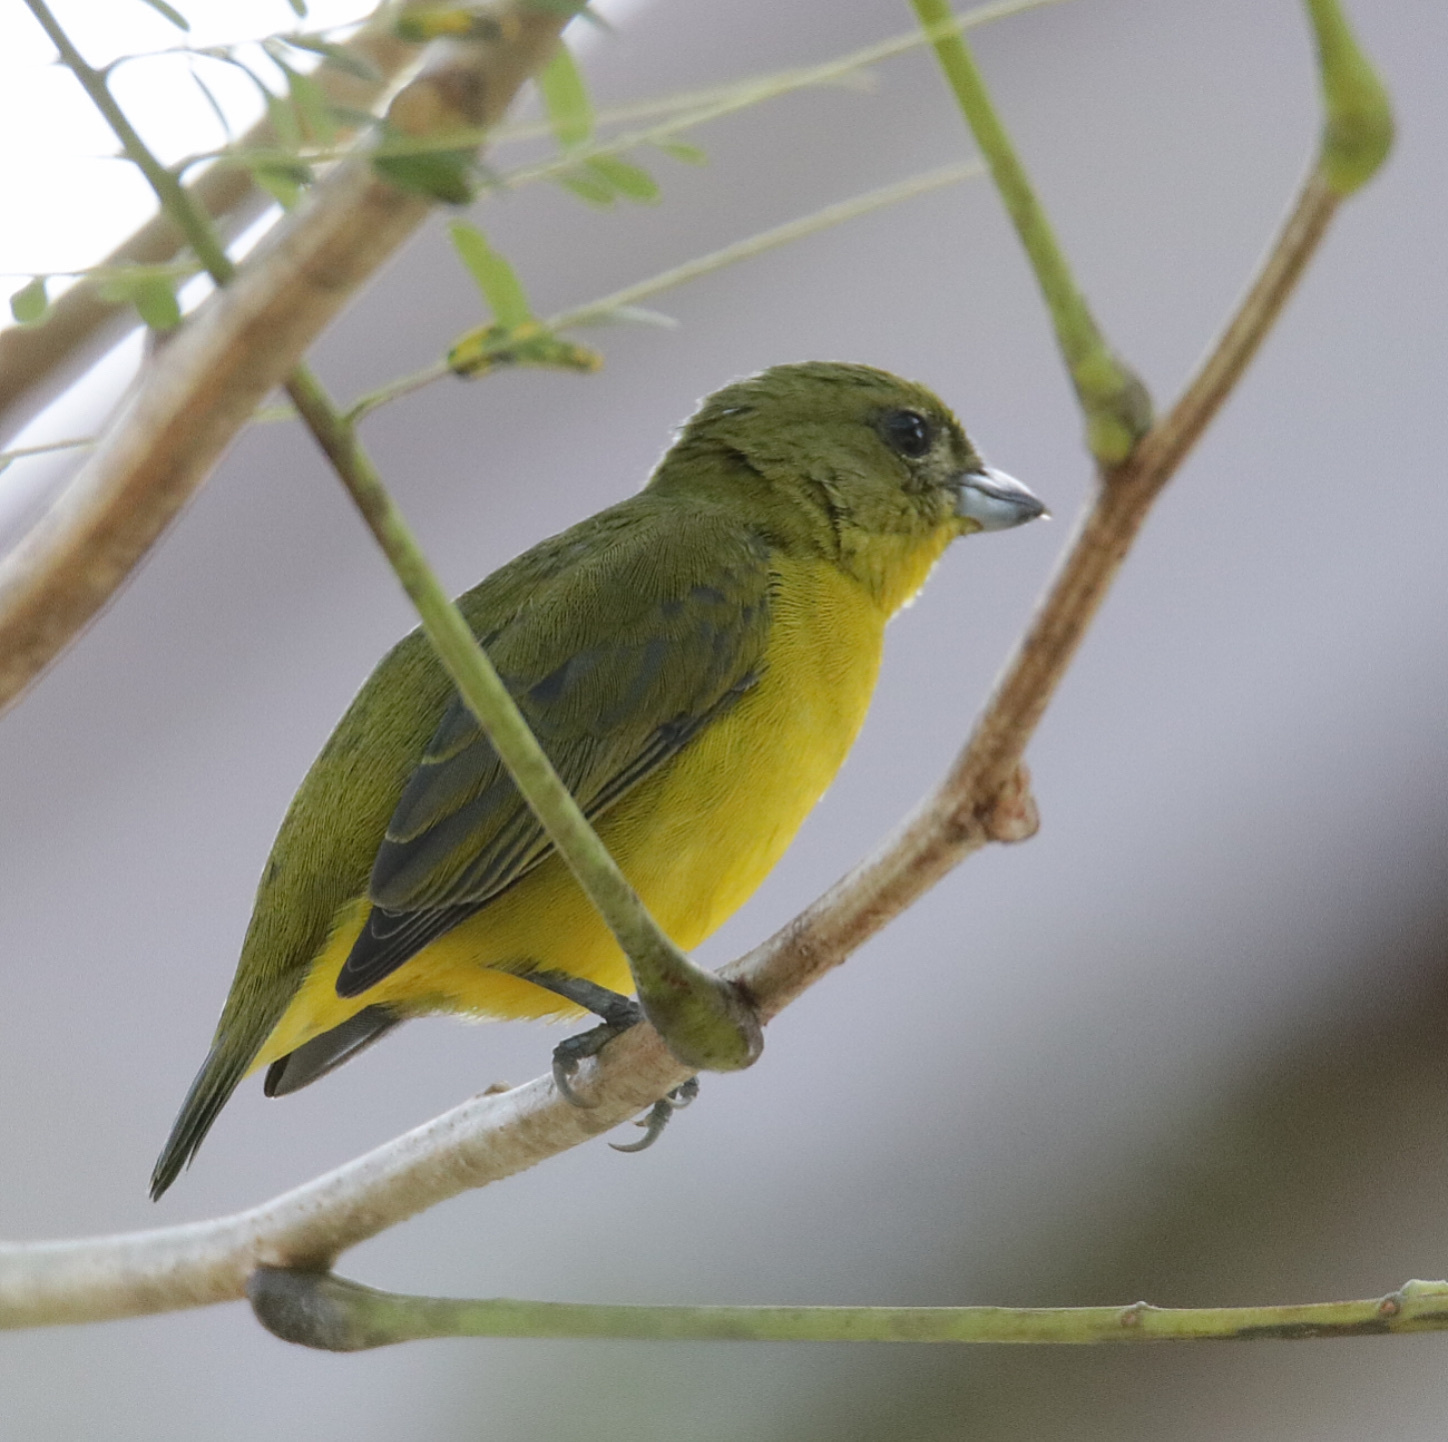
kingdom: Animalia
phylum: Chordata
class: Aves
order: Passeriformes
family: Fringillidae
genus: Euphonia
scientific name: Euphonia laniirostris
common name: Thick-billed euphonia
